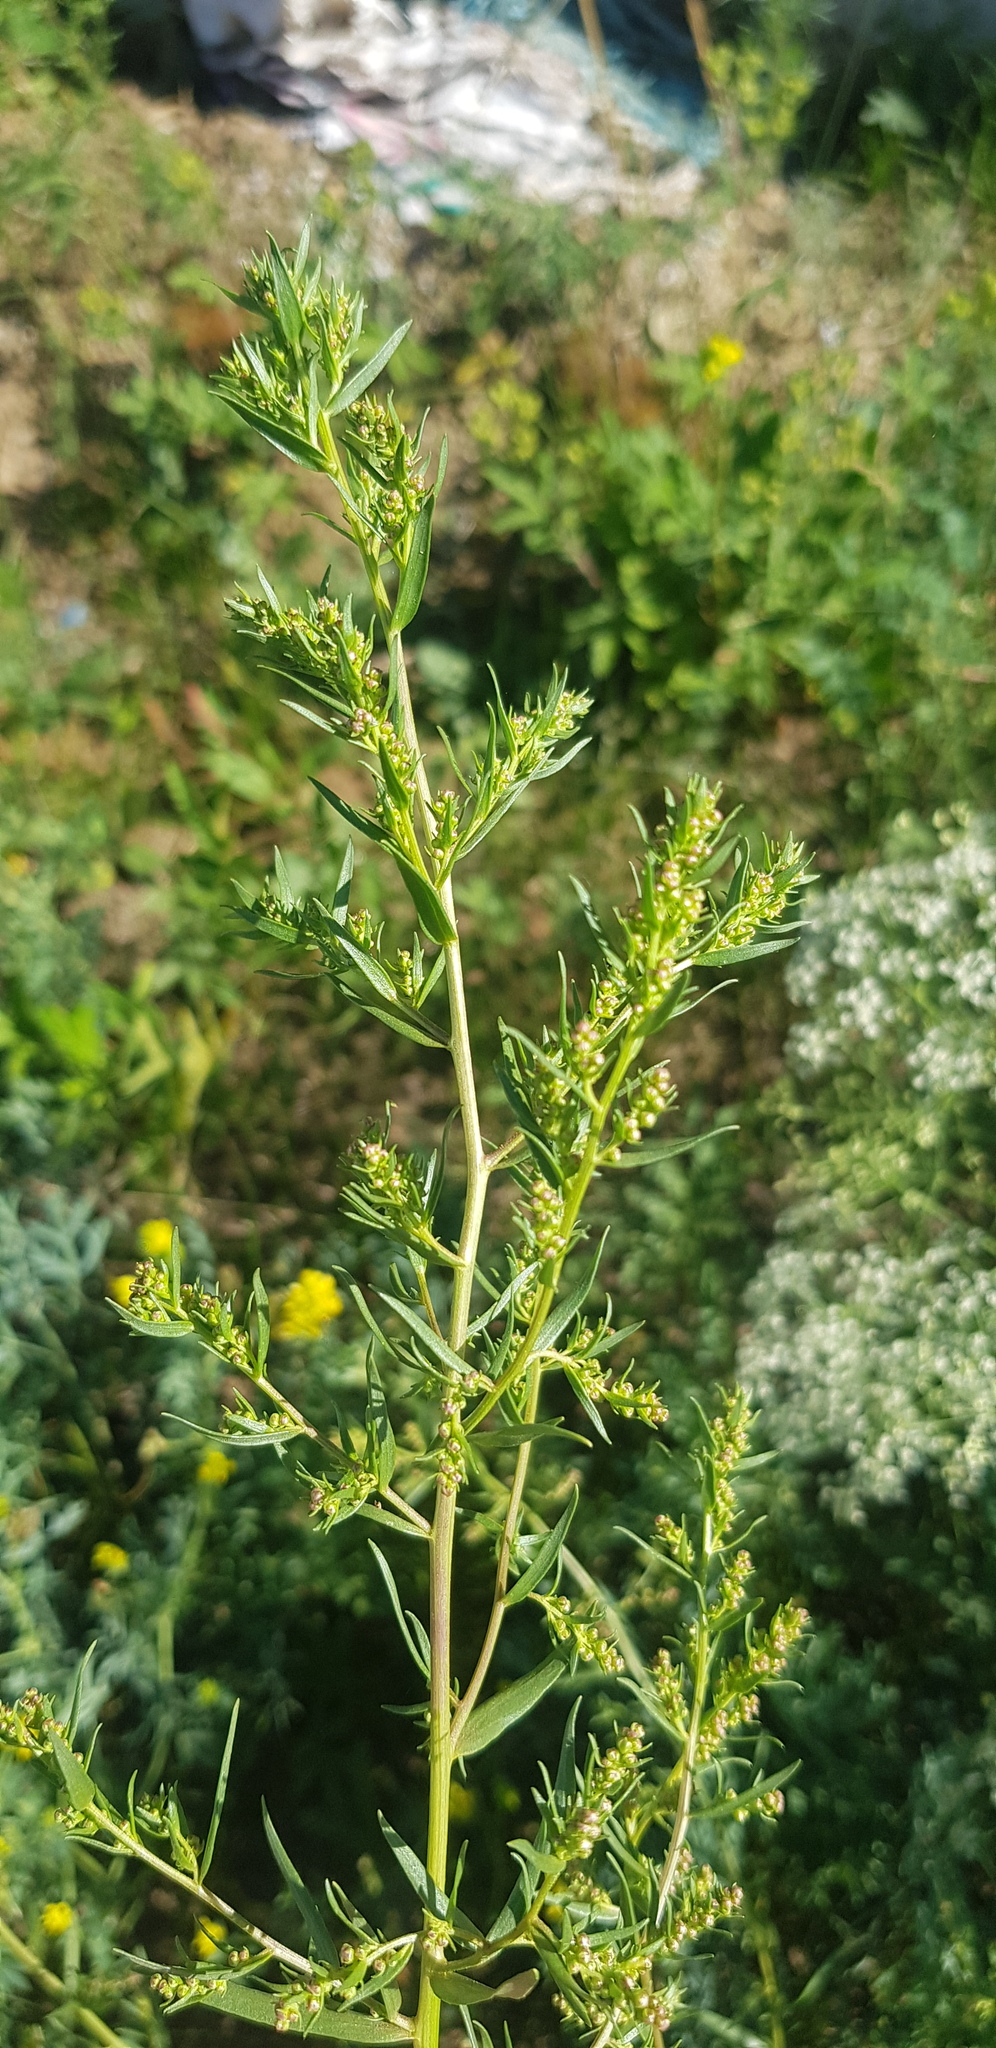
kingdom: Plantae
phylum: Tracheophyta
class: Magnoliopsida
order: Asterales
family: Asteraceae
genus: Artemisia
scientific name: Artemisia dracunculus
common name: Tarragon
